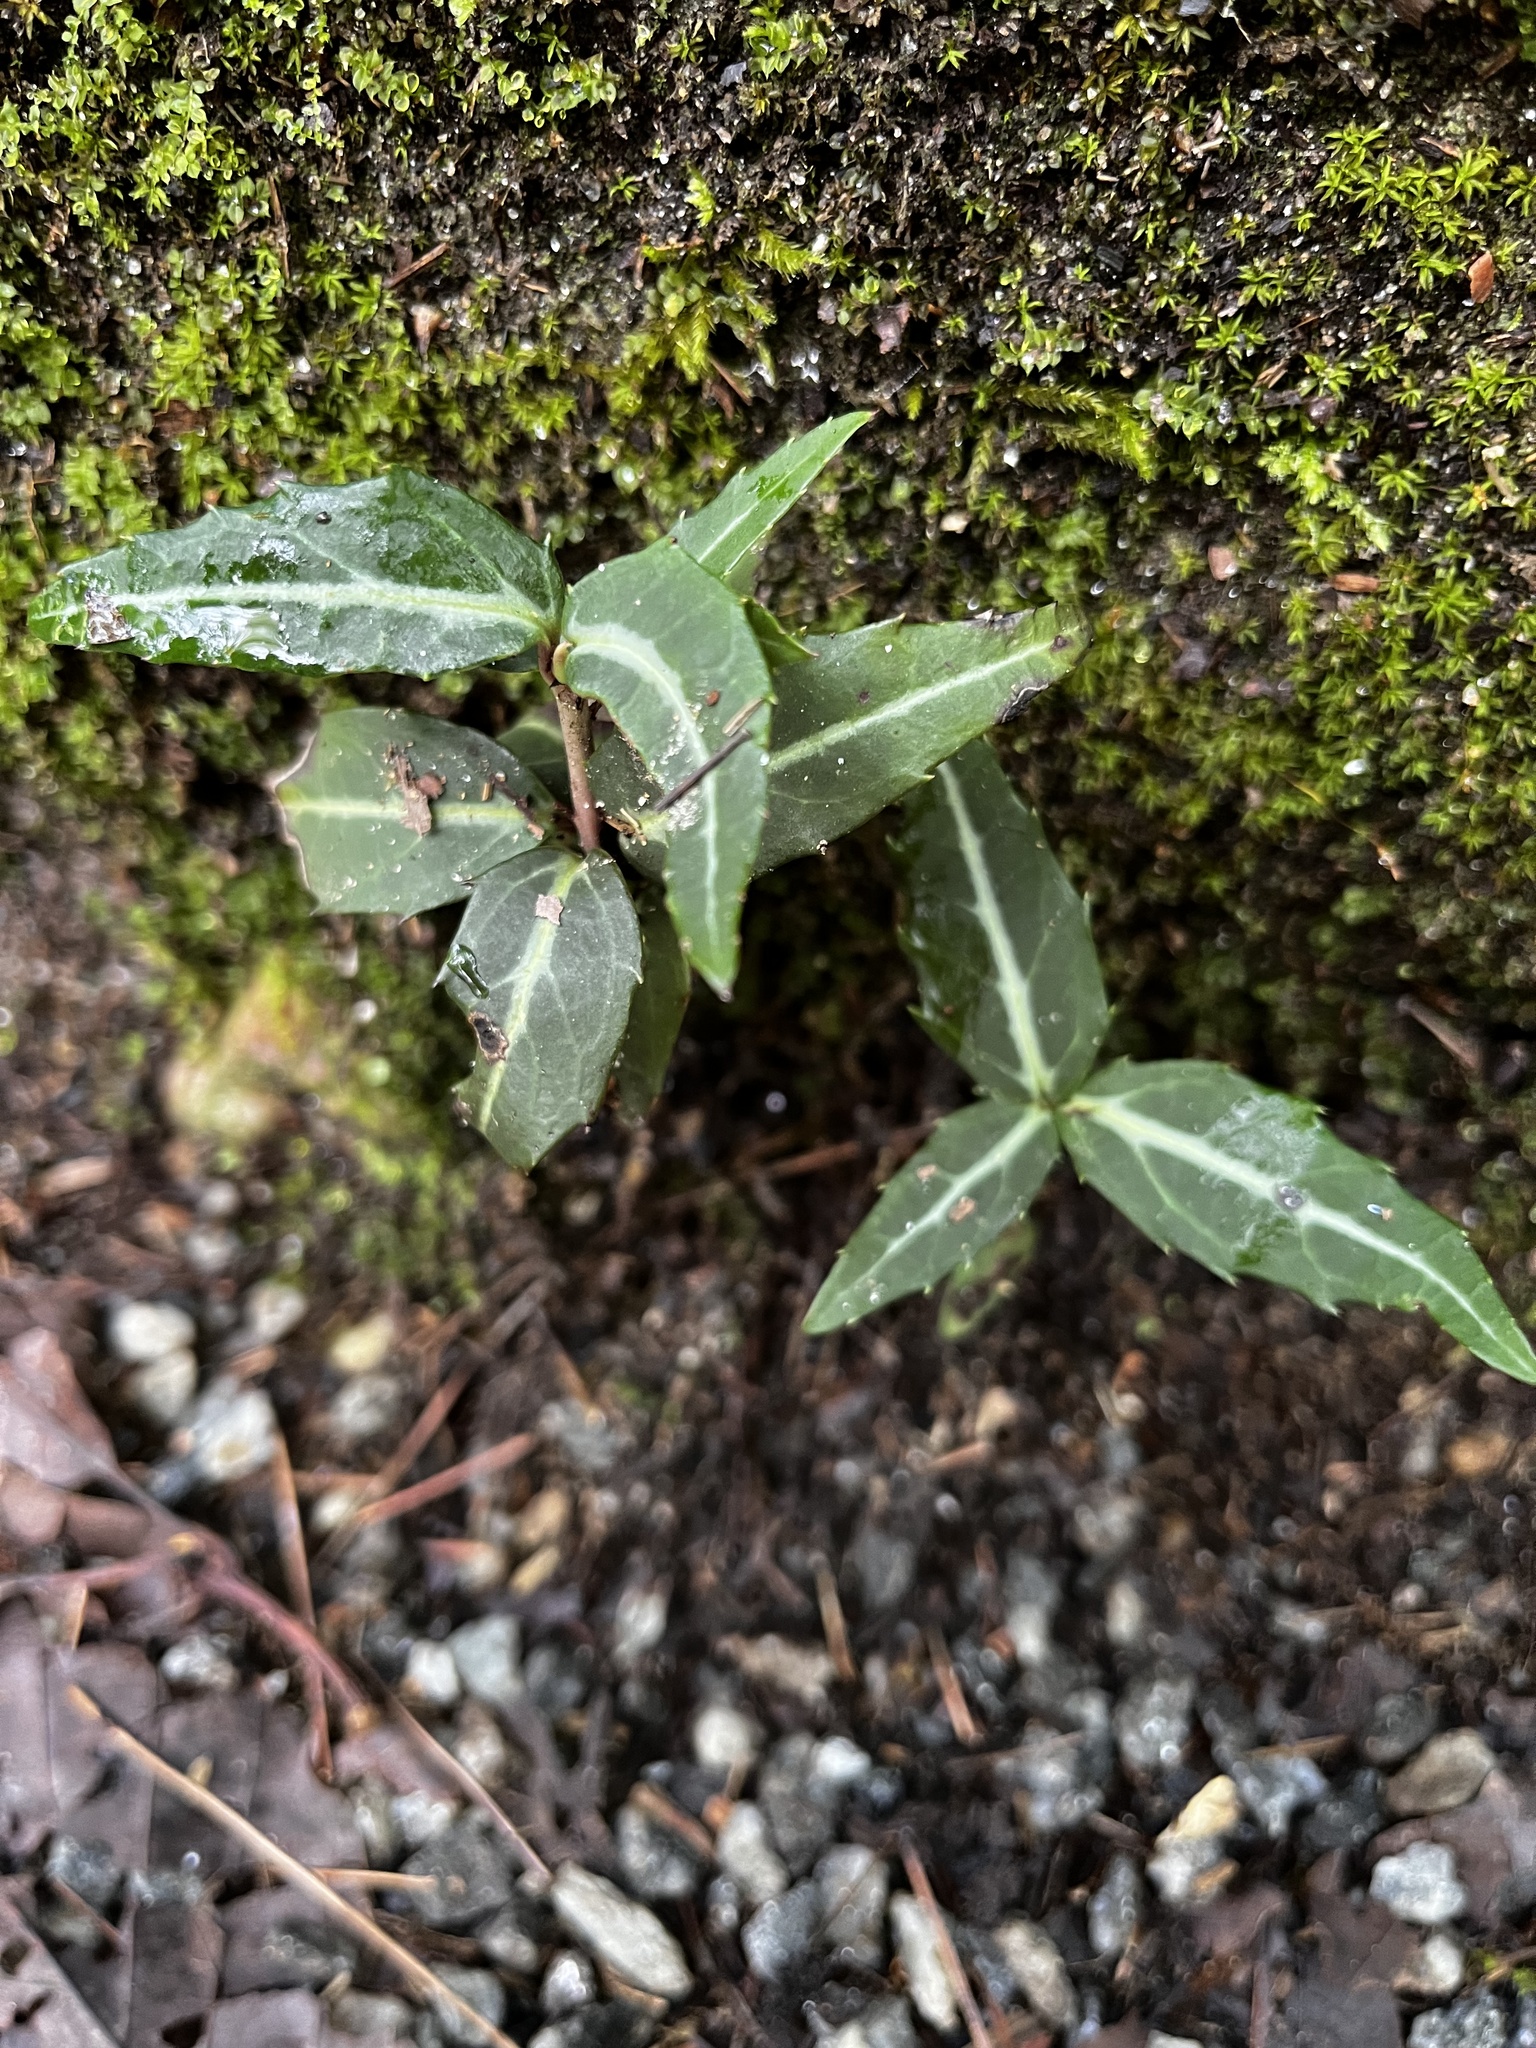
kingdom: Plantae
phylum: Tracheophyta
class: Magnoliopsida
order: Ericales
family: Ericaceae
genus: Chimaphila
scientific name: Chimaphila maculata
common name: Spotted pipsissewa
